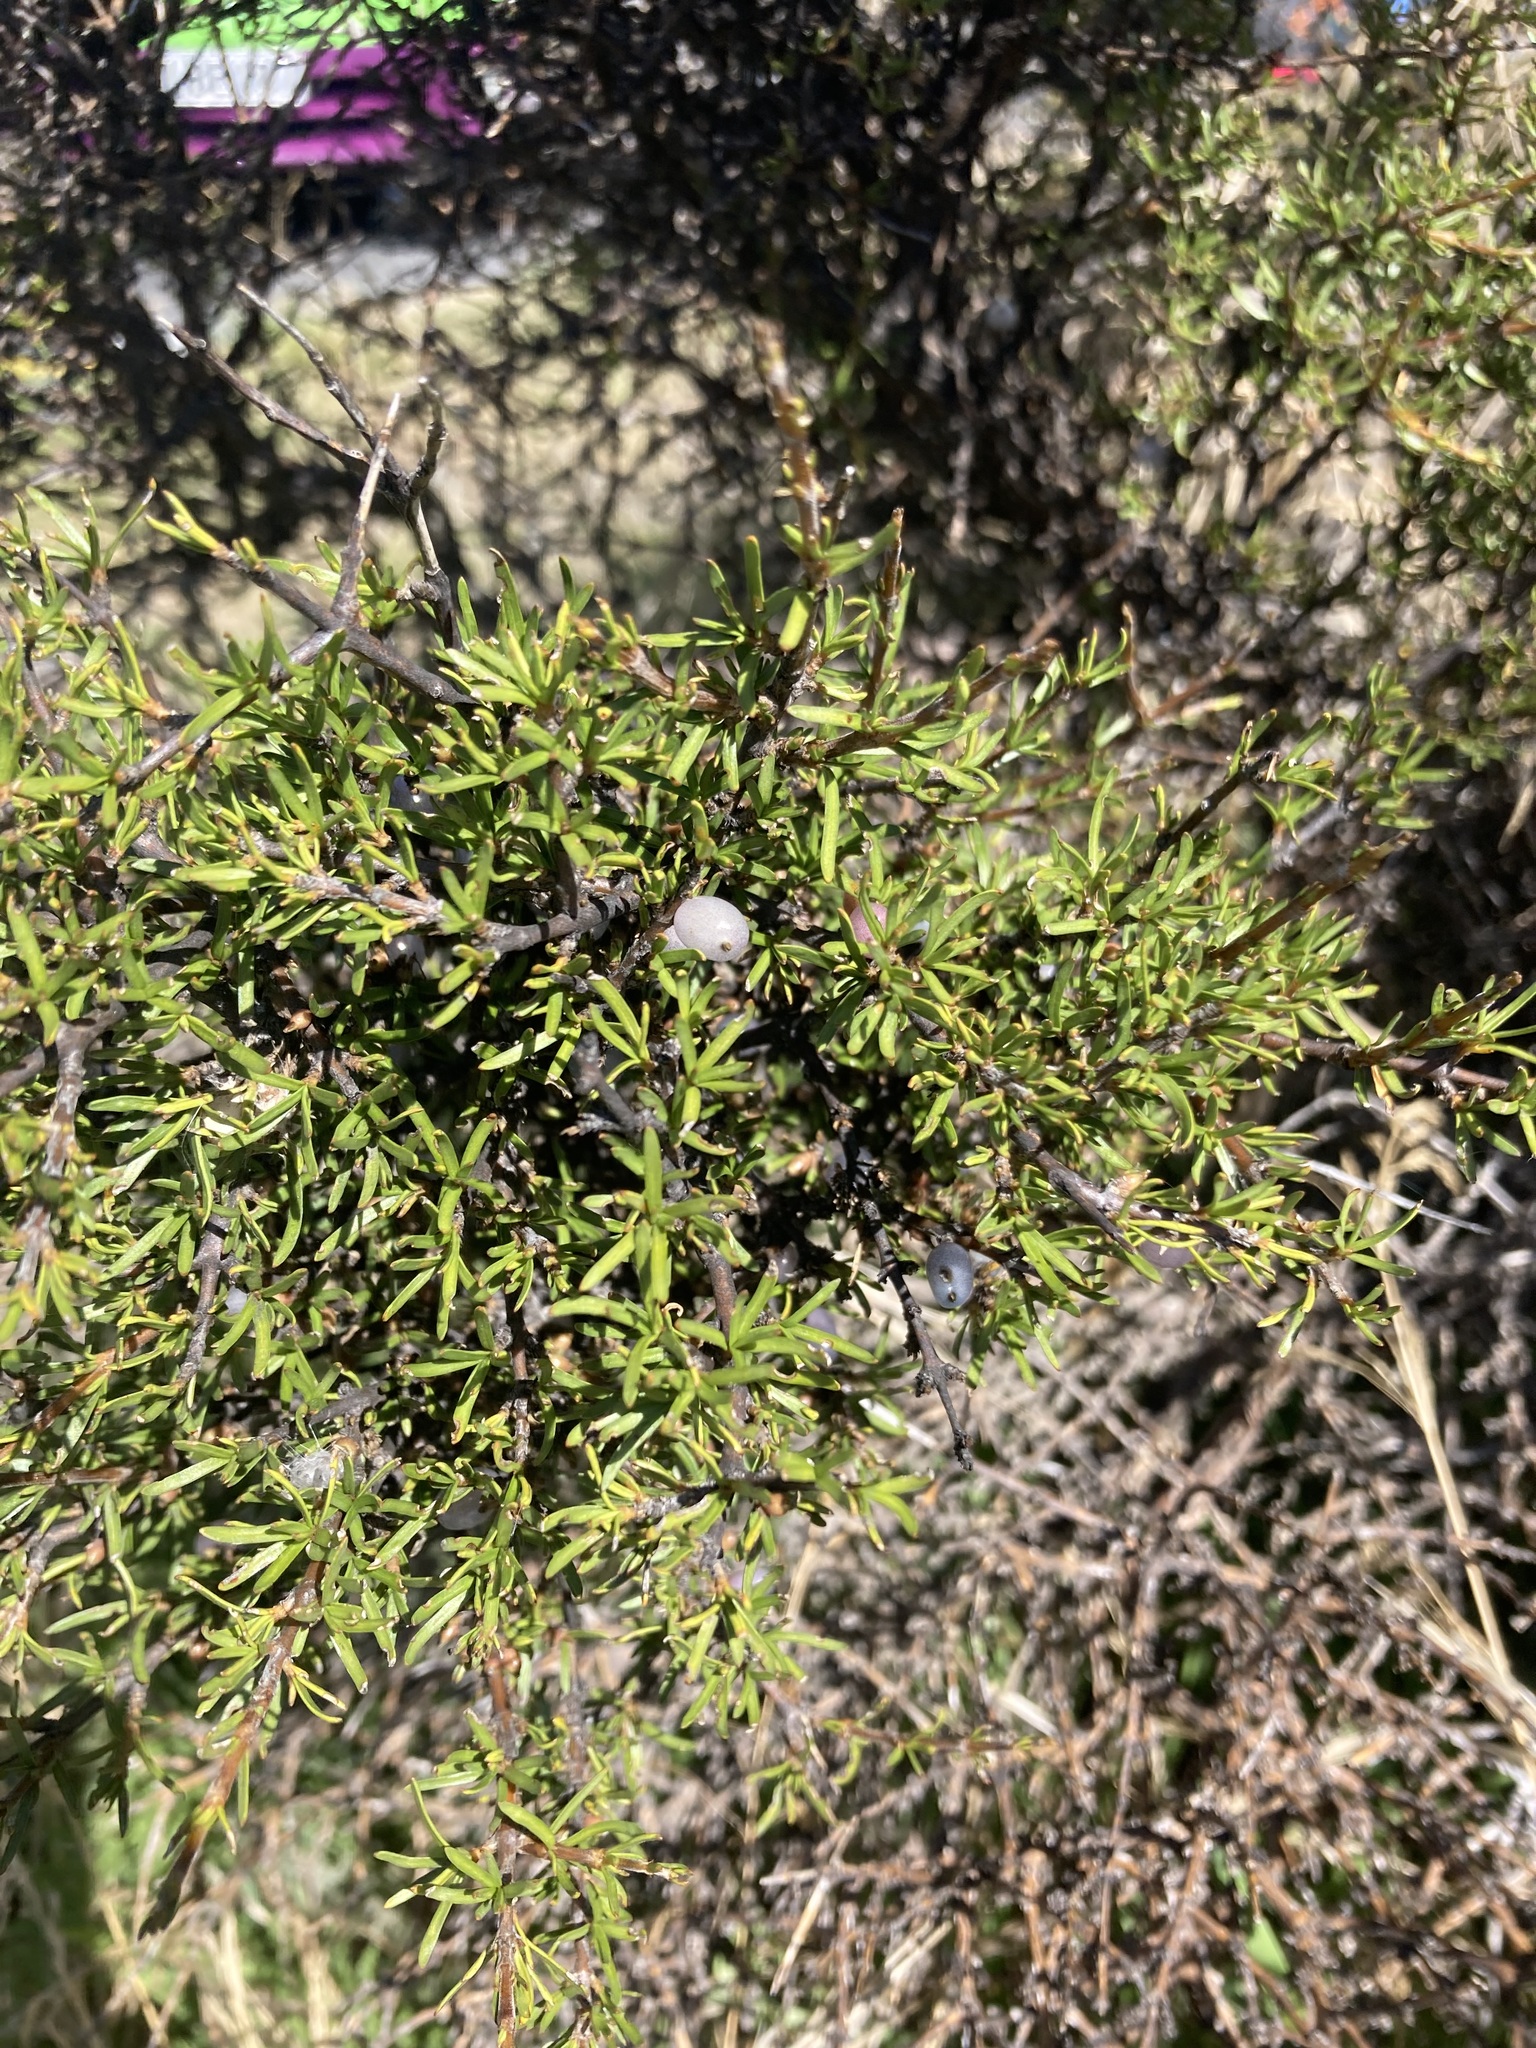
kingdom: Plantae
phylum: Tracheophyta
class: Magnoliopsida
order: Gentianales
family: Rubiaceae
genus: Coprosma
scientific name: Coprosma rugosa
